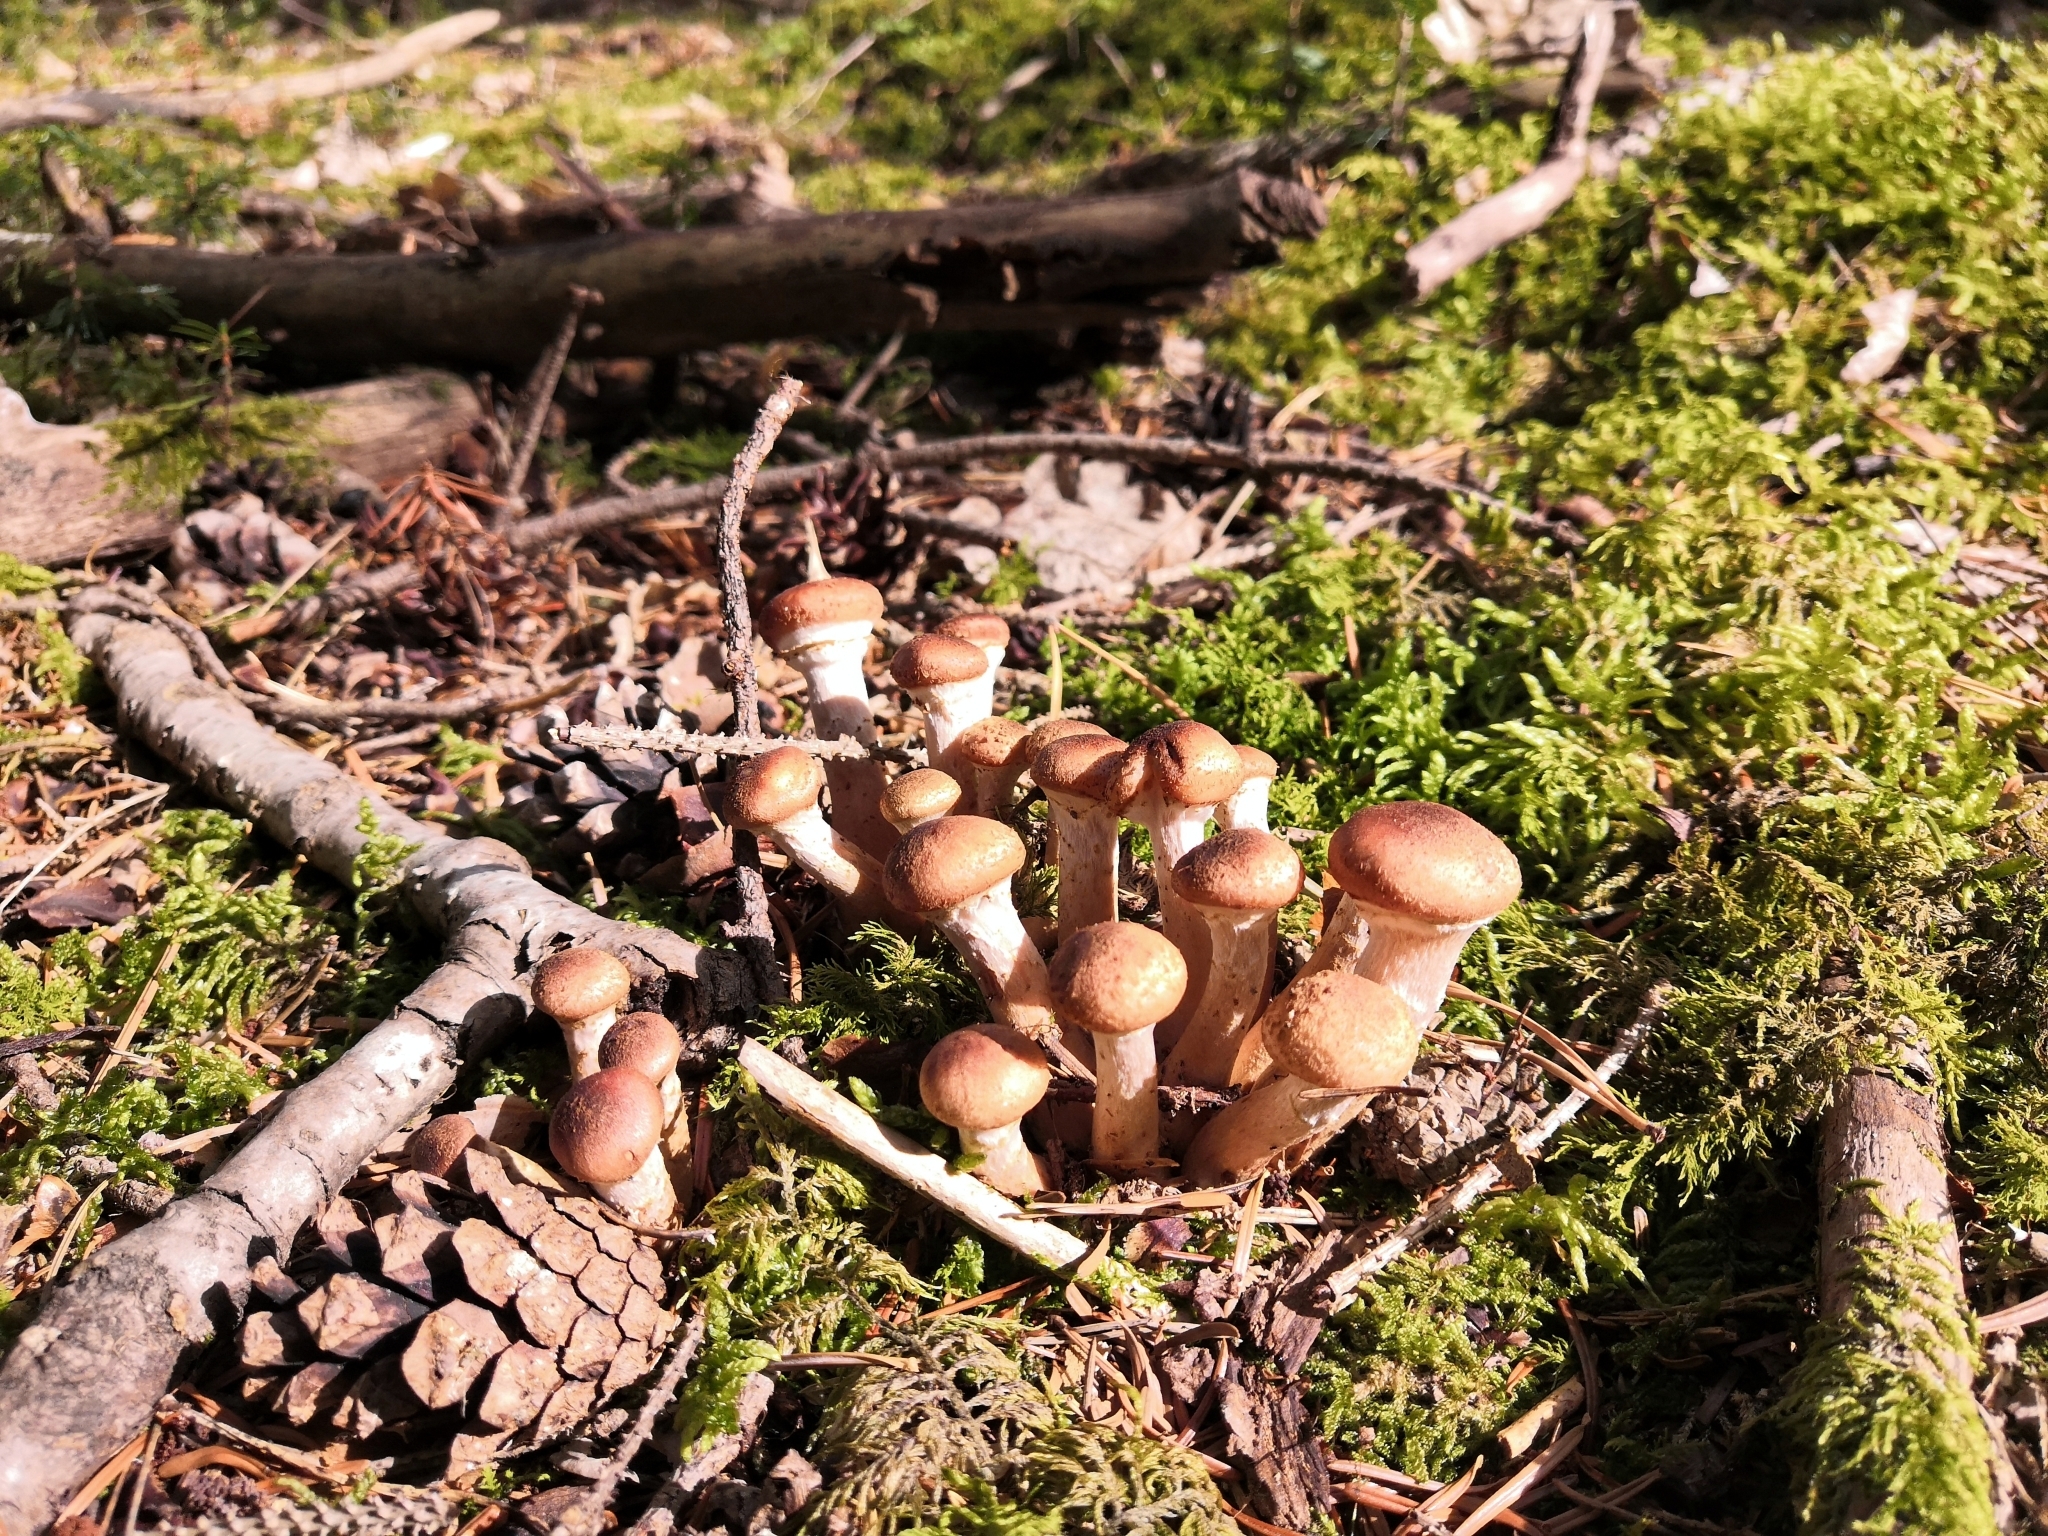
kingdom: Fungi
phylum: Basidiomycota
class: Agaricomycetes
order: Agaricales
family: Physalacriaceae
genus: Armillaria
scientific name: Armillaria ostoyae
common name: Dark honey fungus
